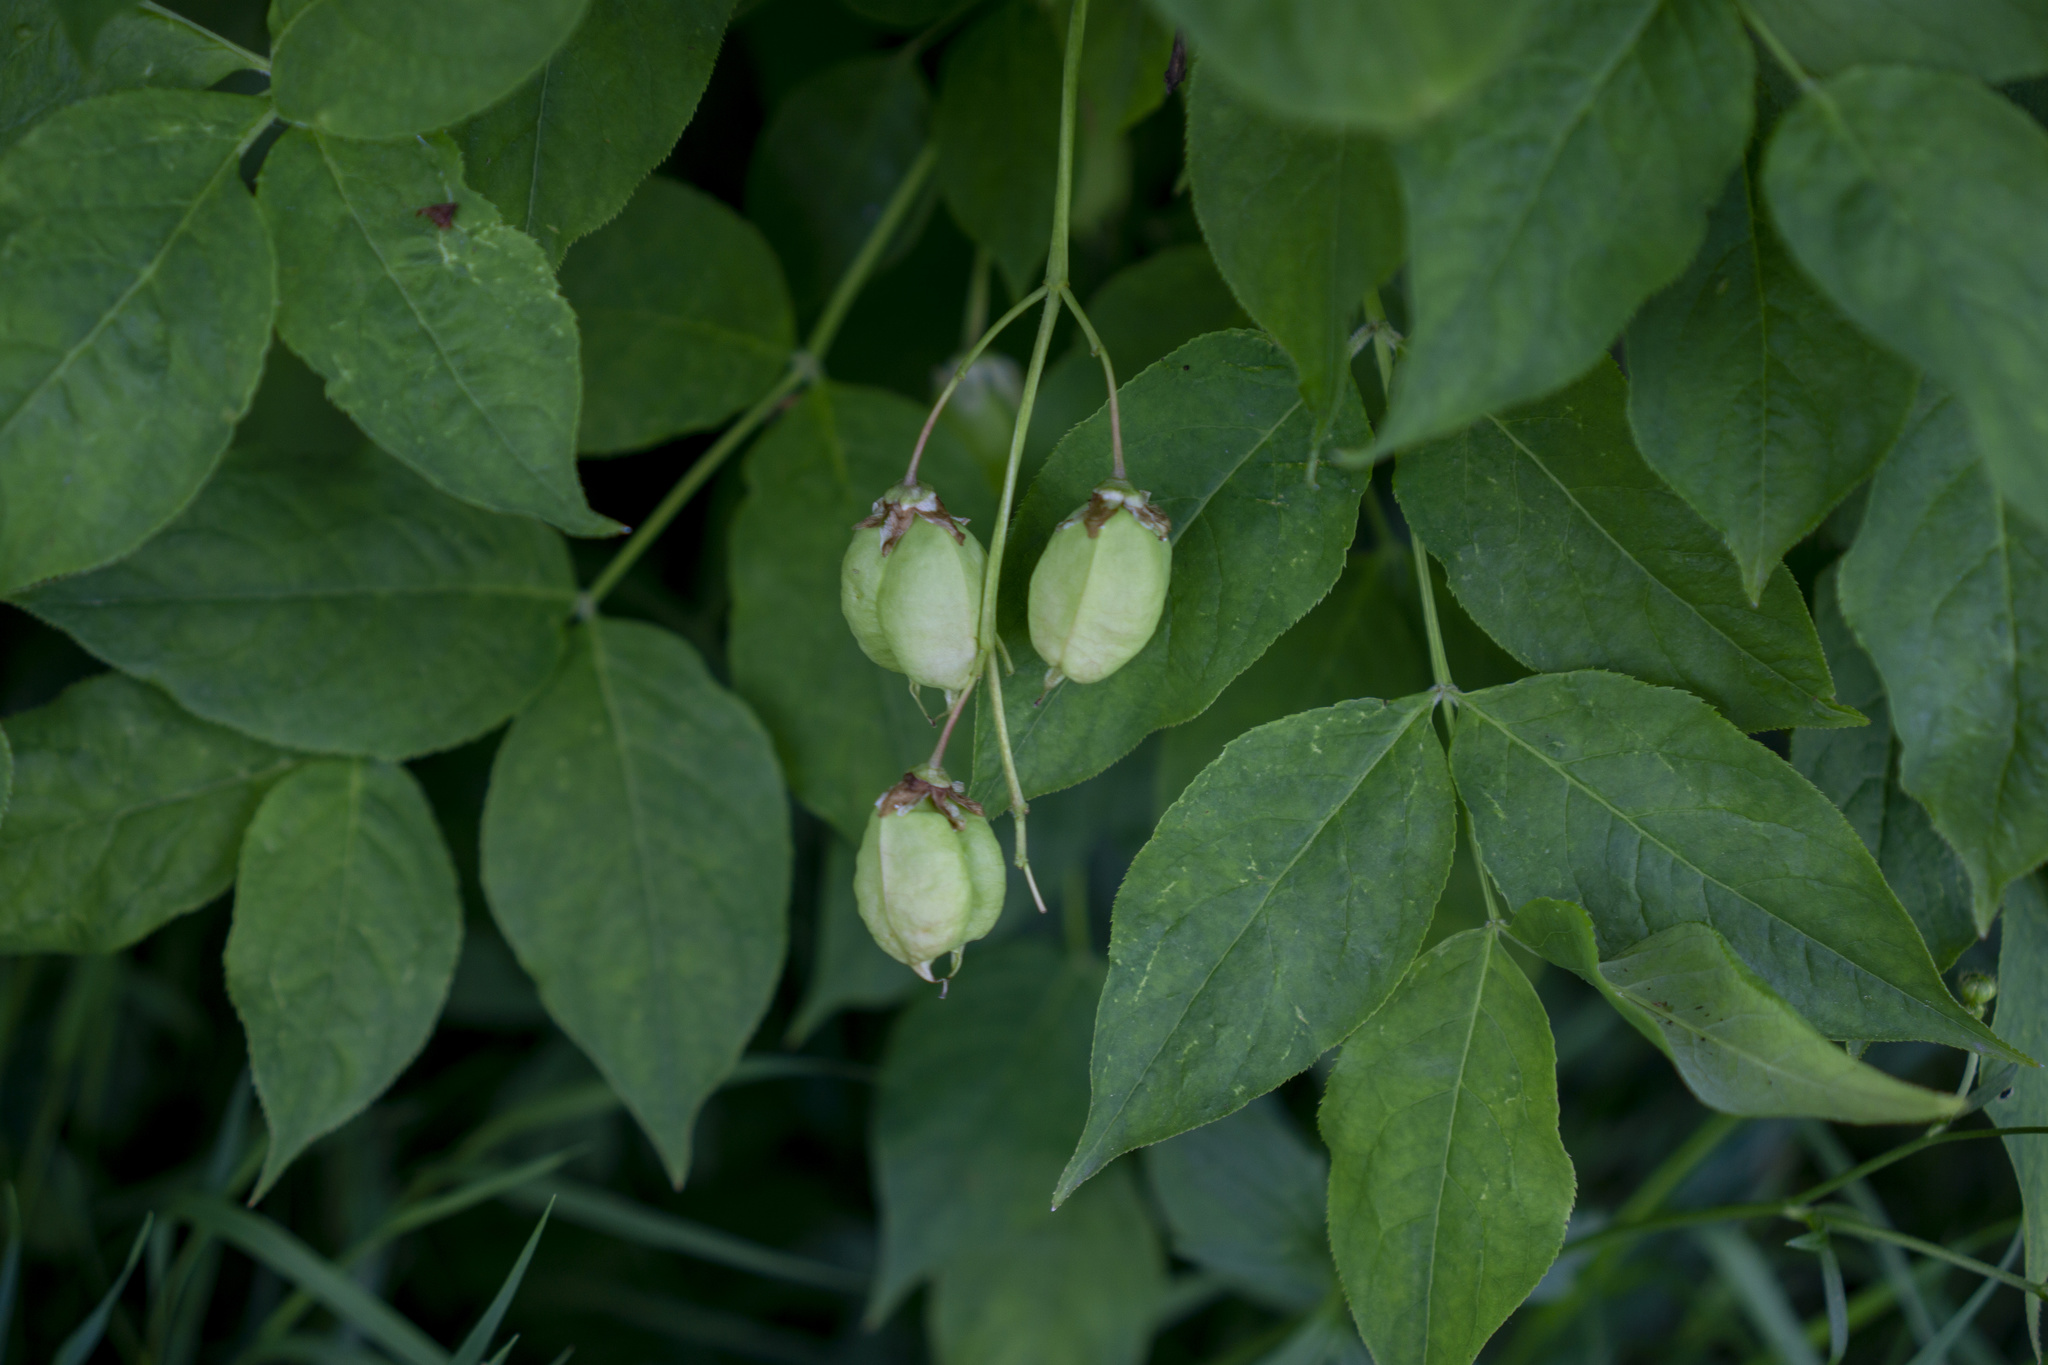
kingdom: Plantae
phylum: Tracheophyta
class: Magnoliopsida
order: Crossosomatales
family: Staphyleaceae
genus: Staphylea
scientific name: Staphylea pinnata
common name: Bladdernut
